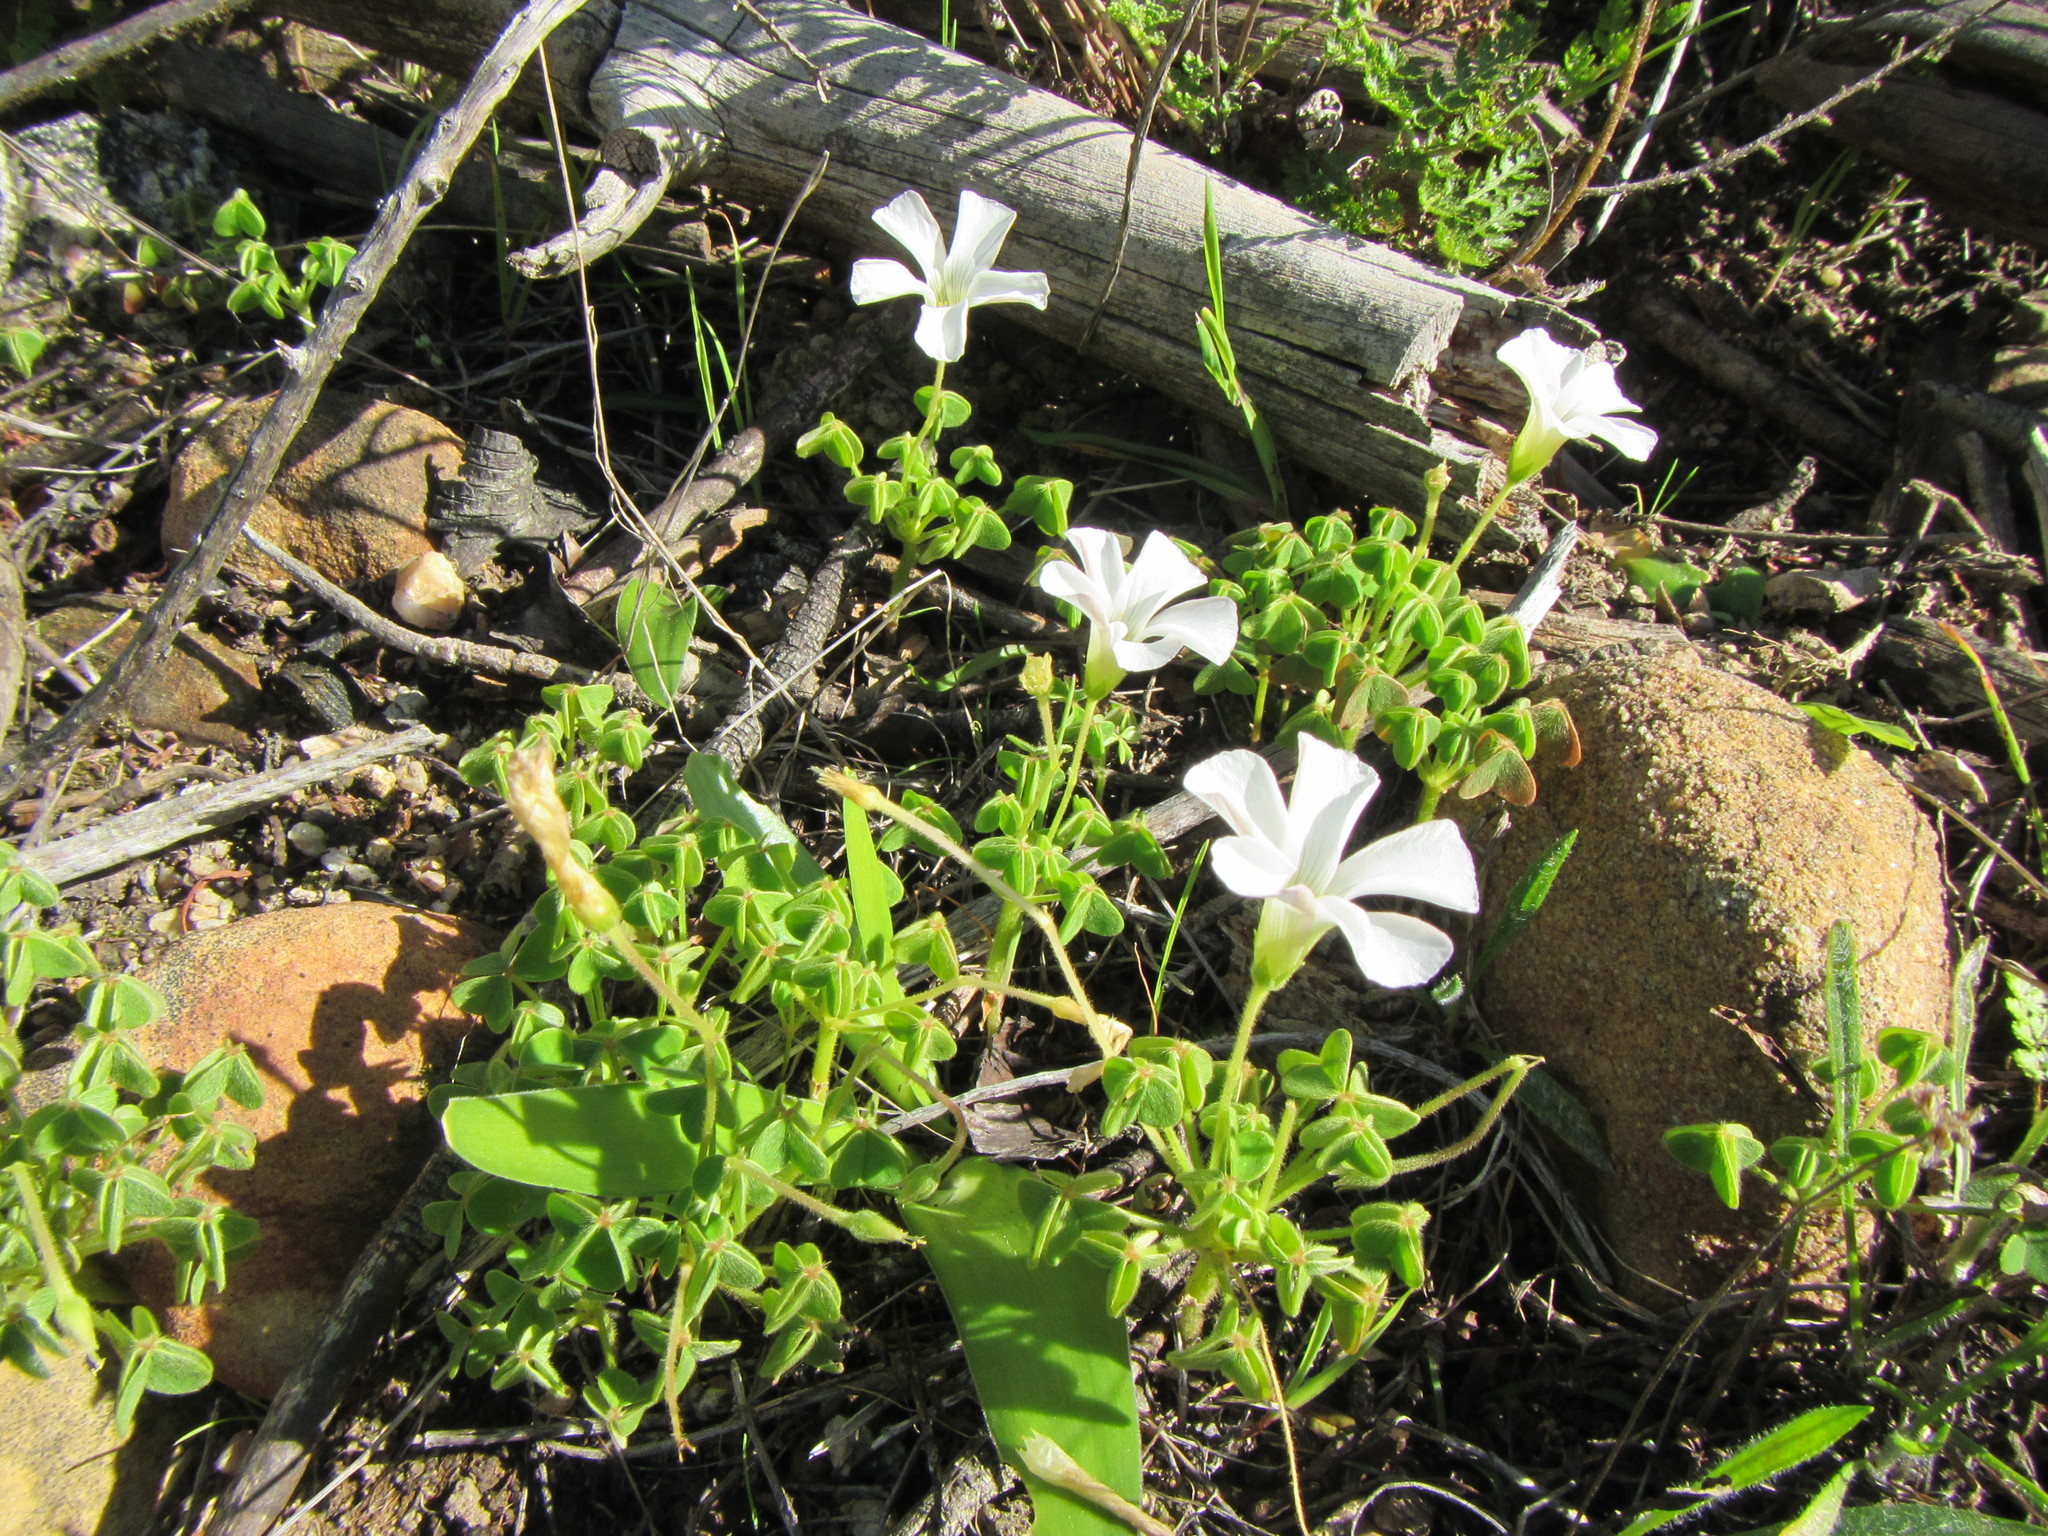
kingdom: Plantae
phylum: Tracheophyta
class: Magnoliopsida
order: Oxalidales
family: Oxalidaceae
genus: Oxalis
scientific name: Oxalis lanata
